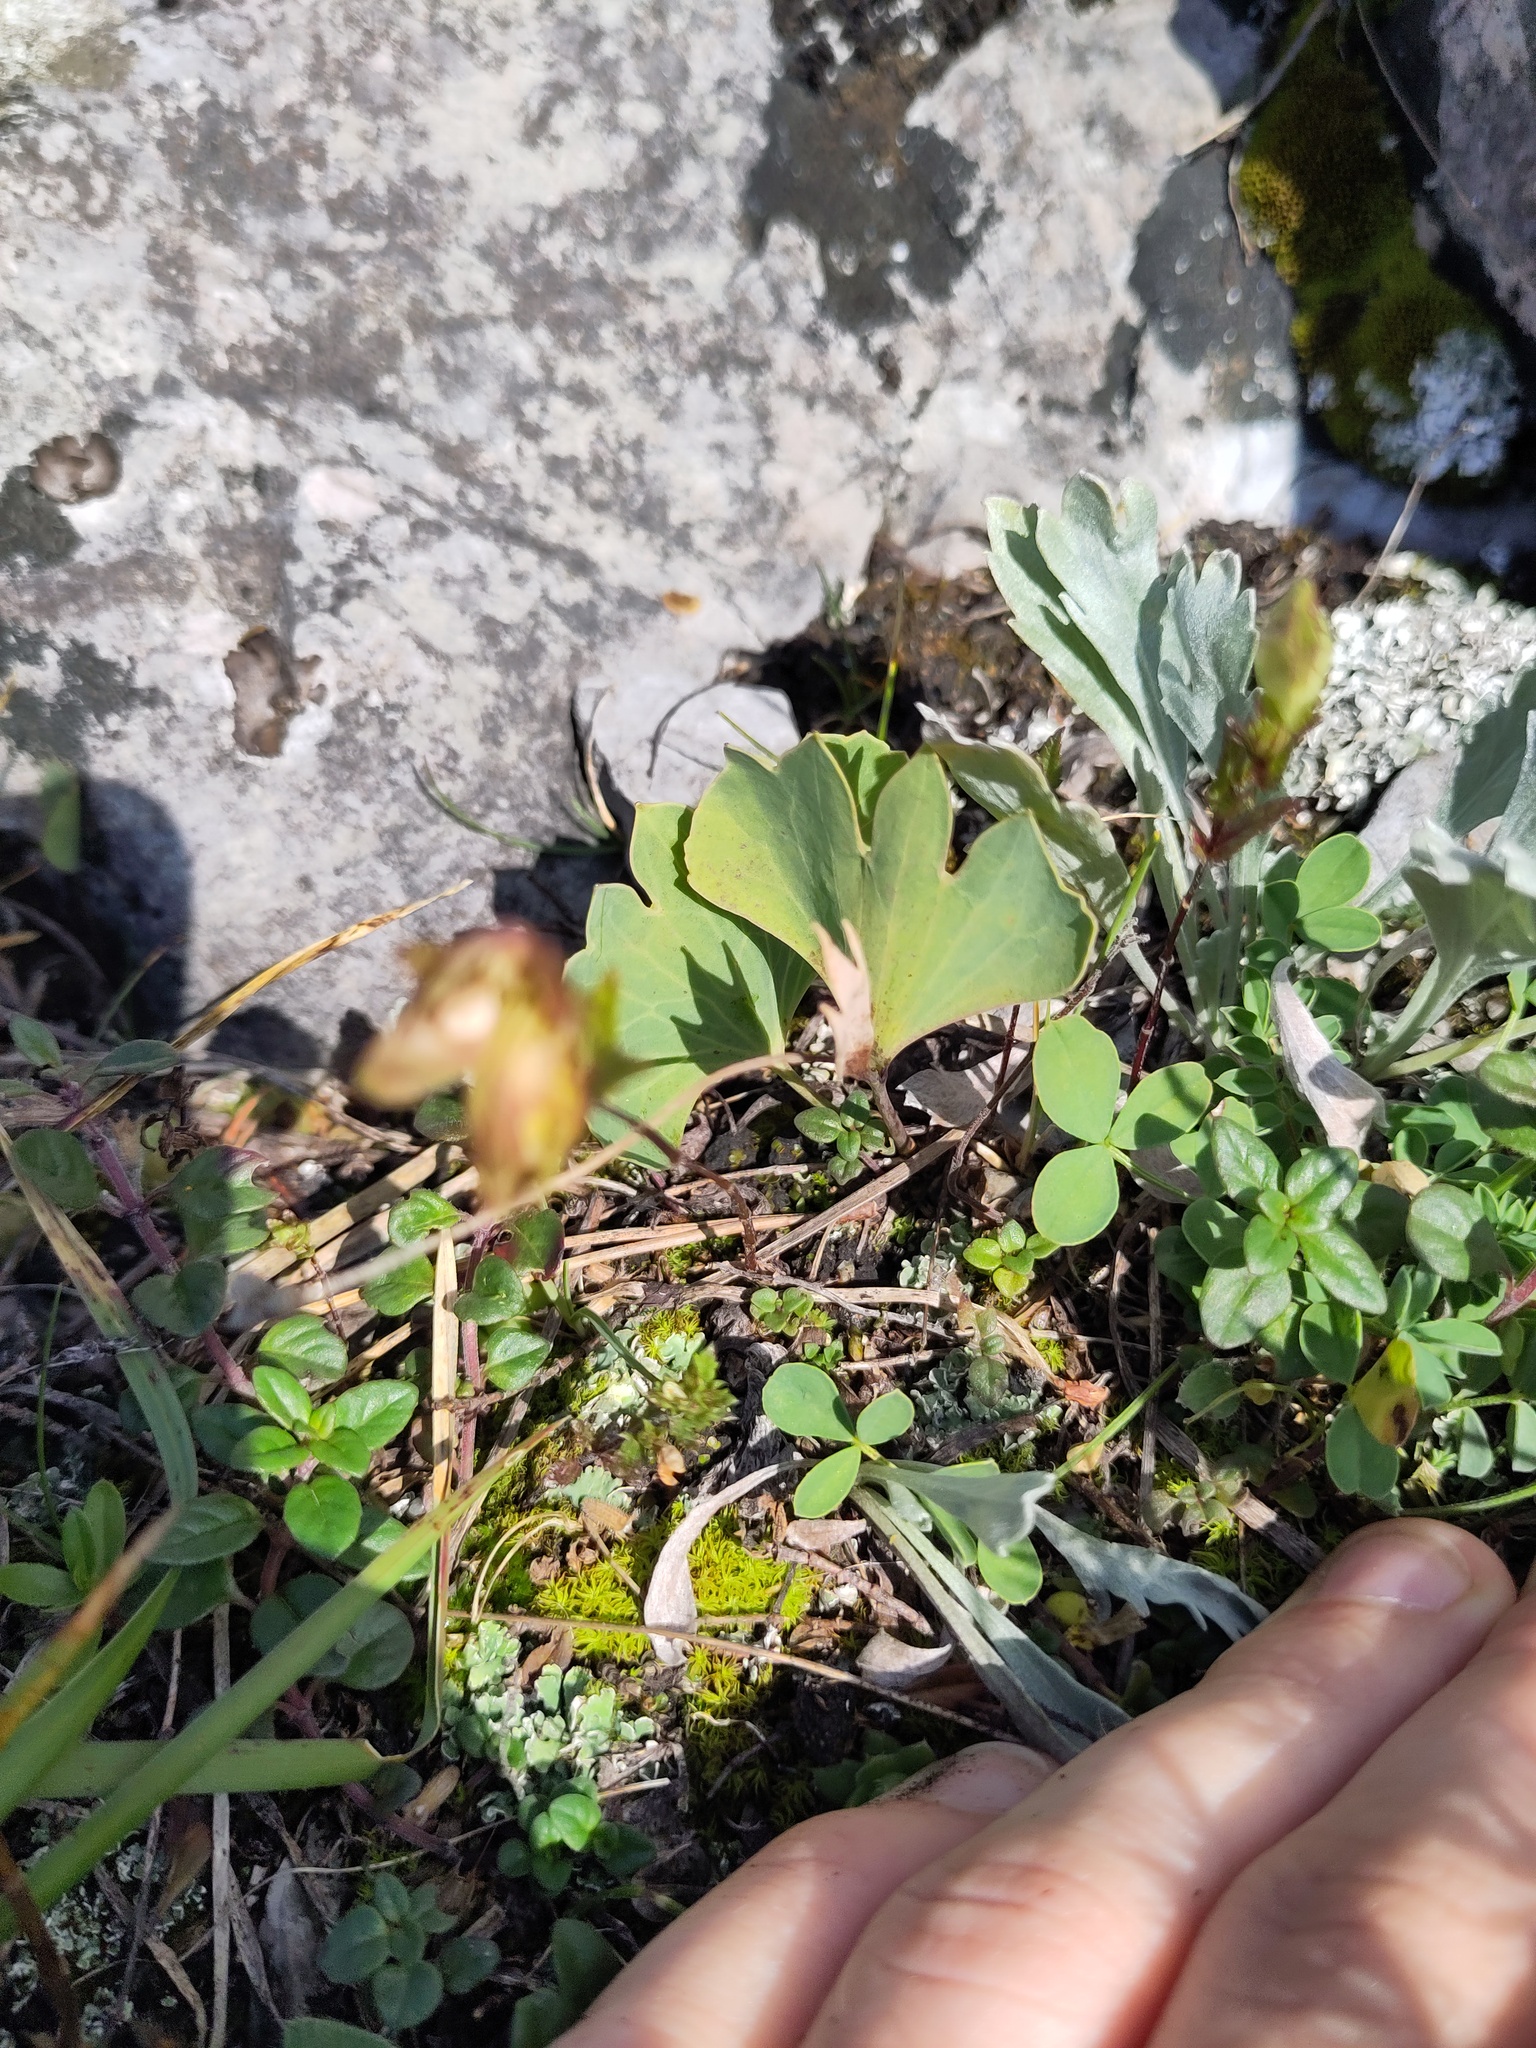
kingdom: Plantae
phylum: Tracheophyta
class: Magnoliopsida
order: Ranunculales
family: Ranunculaceae
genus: Ranunculus
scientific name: Ranunculus hybridus
